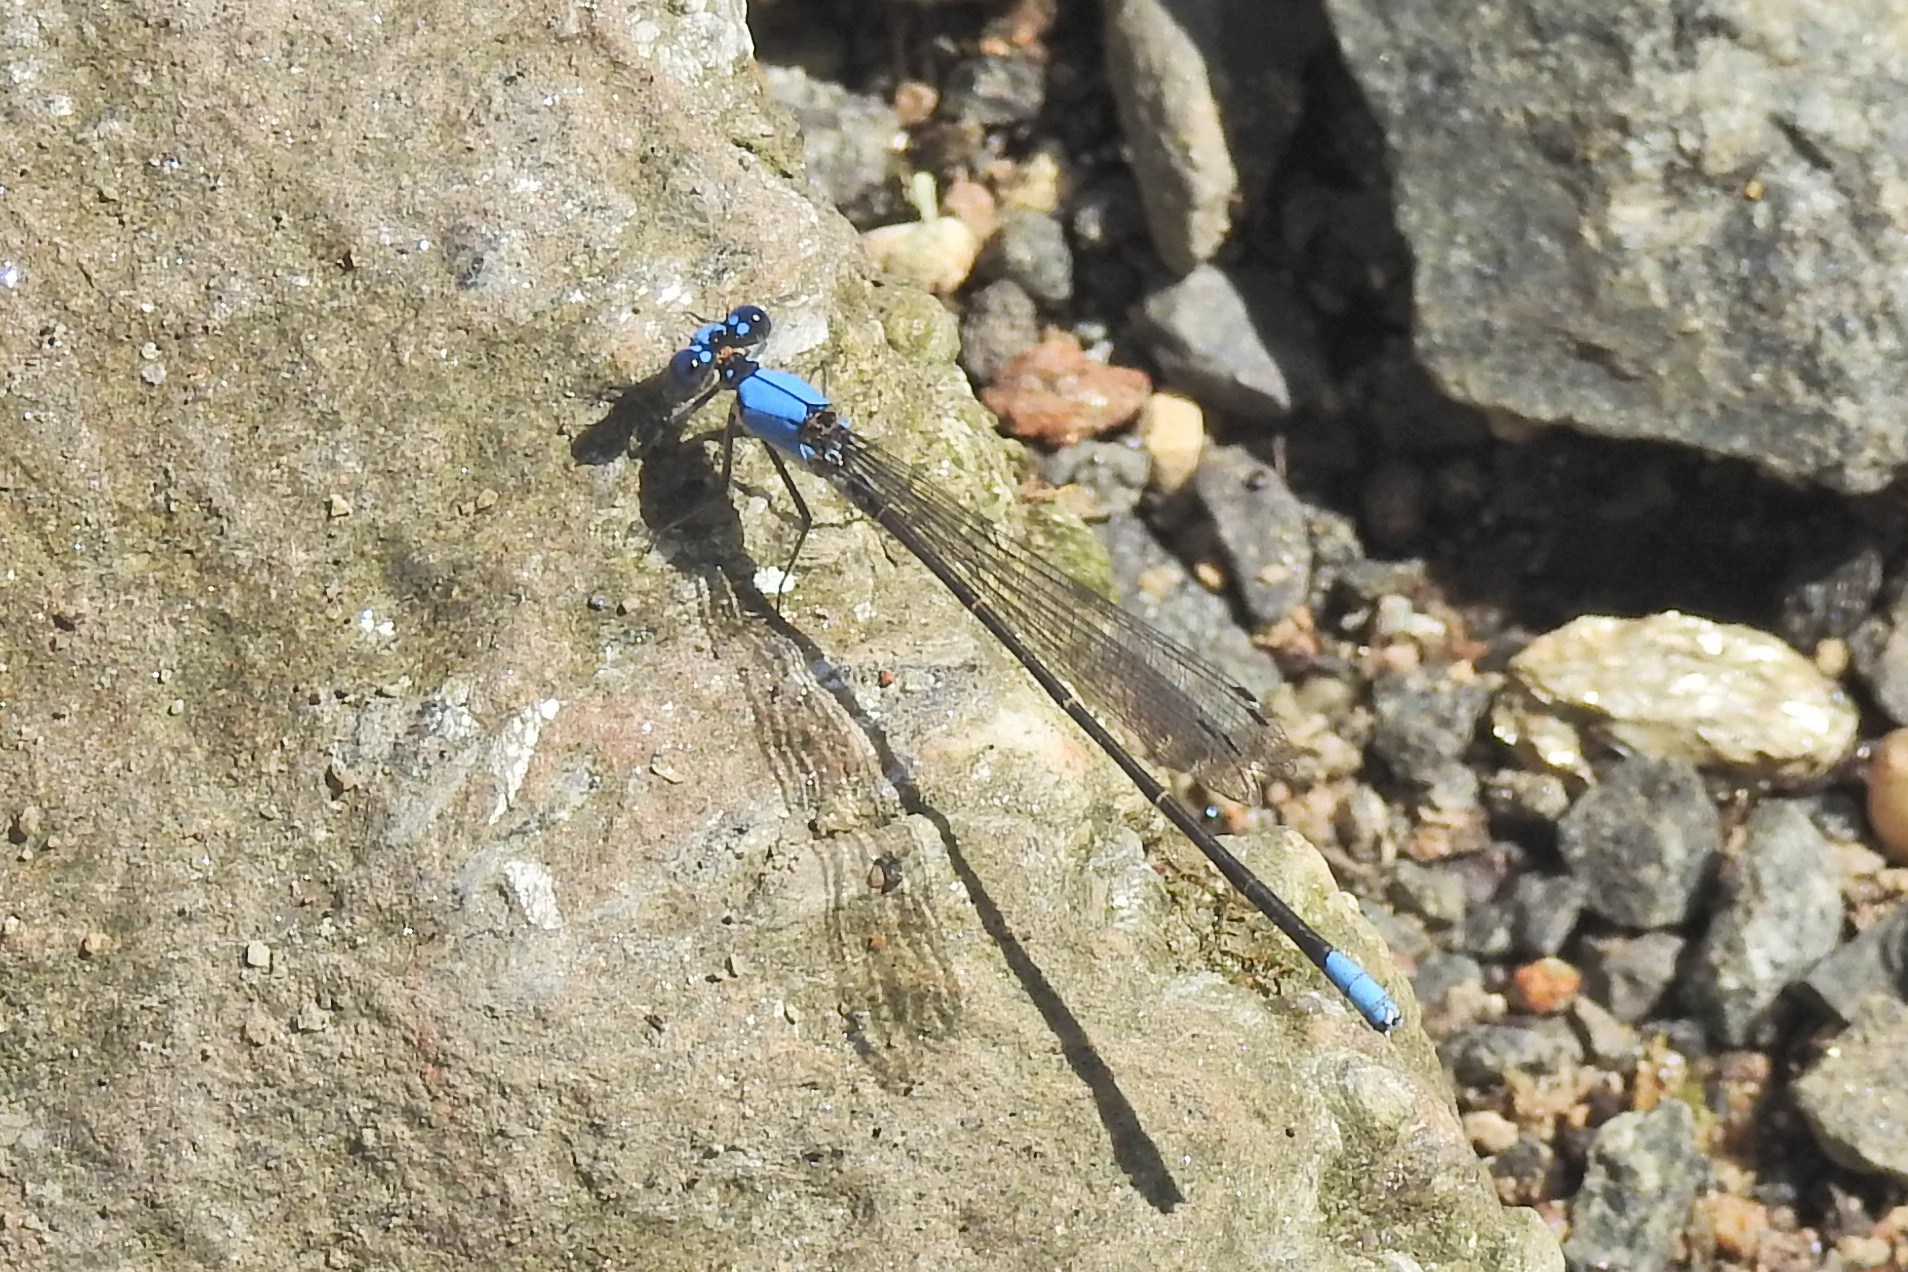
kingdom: Animalia
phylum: Arthropoda
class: Insecta
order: Odonata
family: Coenagrionidae
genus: Argia
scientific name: Argia apicalis
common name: Blue-fronted dancer
